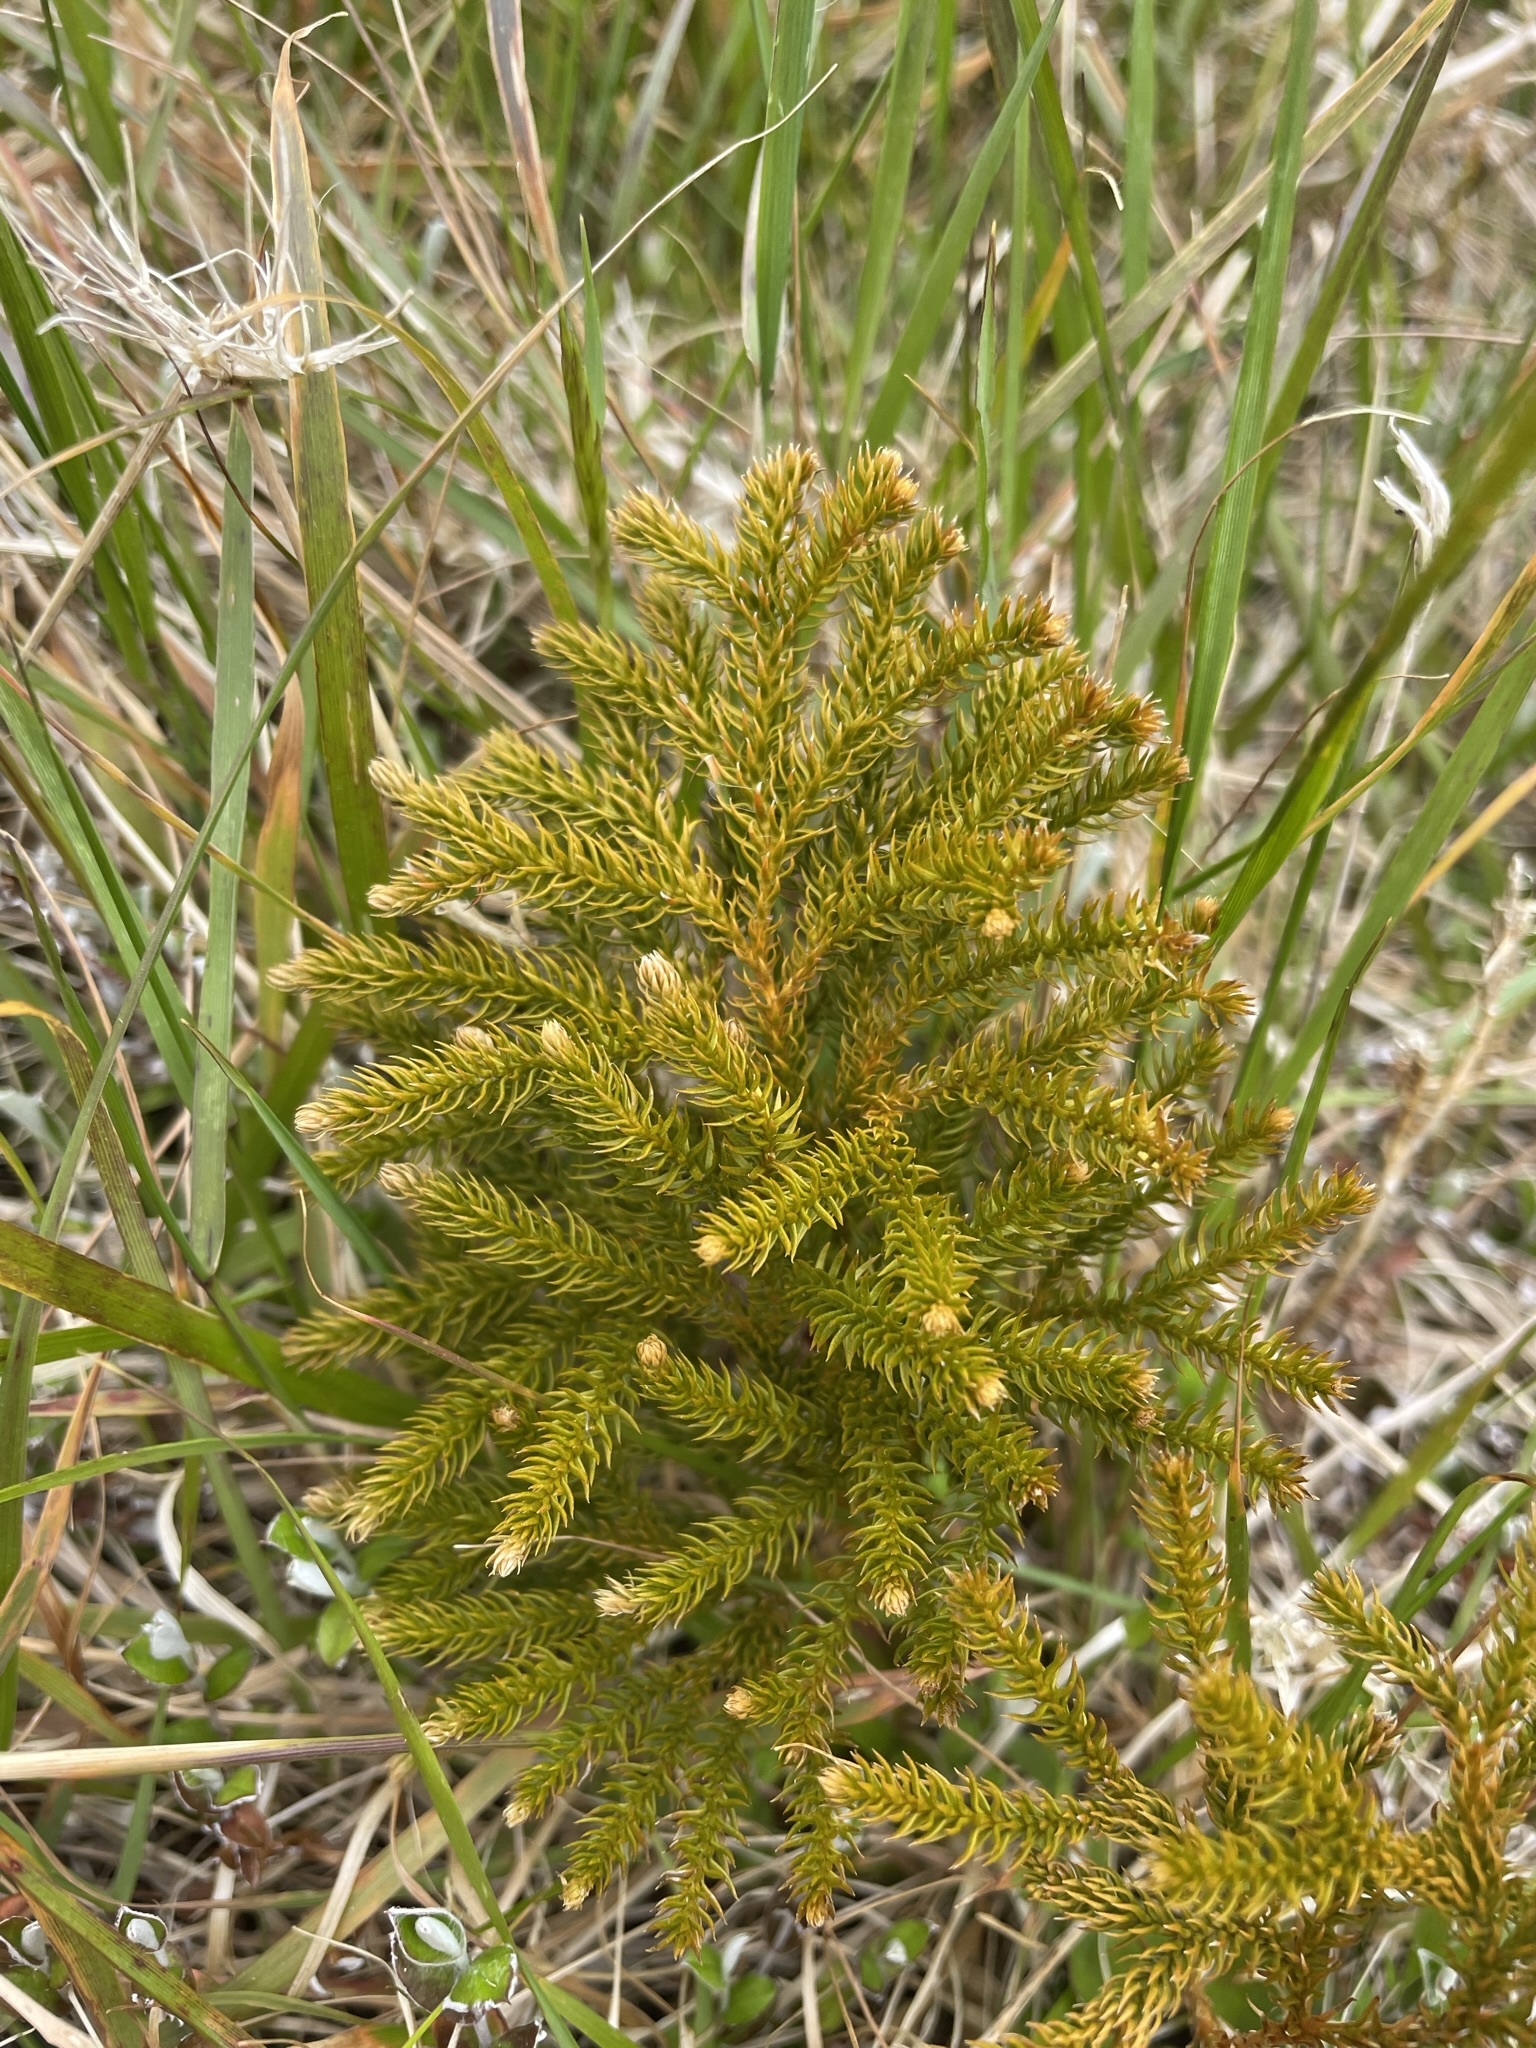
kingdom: Plantae
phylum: Tracheophyta
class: Lycopodiopsida
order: Lycopodiales
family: Lycopodiaceae
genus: Austrolycopodium
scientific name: Austrolycopodium fastigiatum
